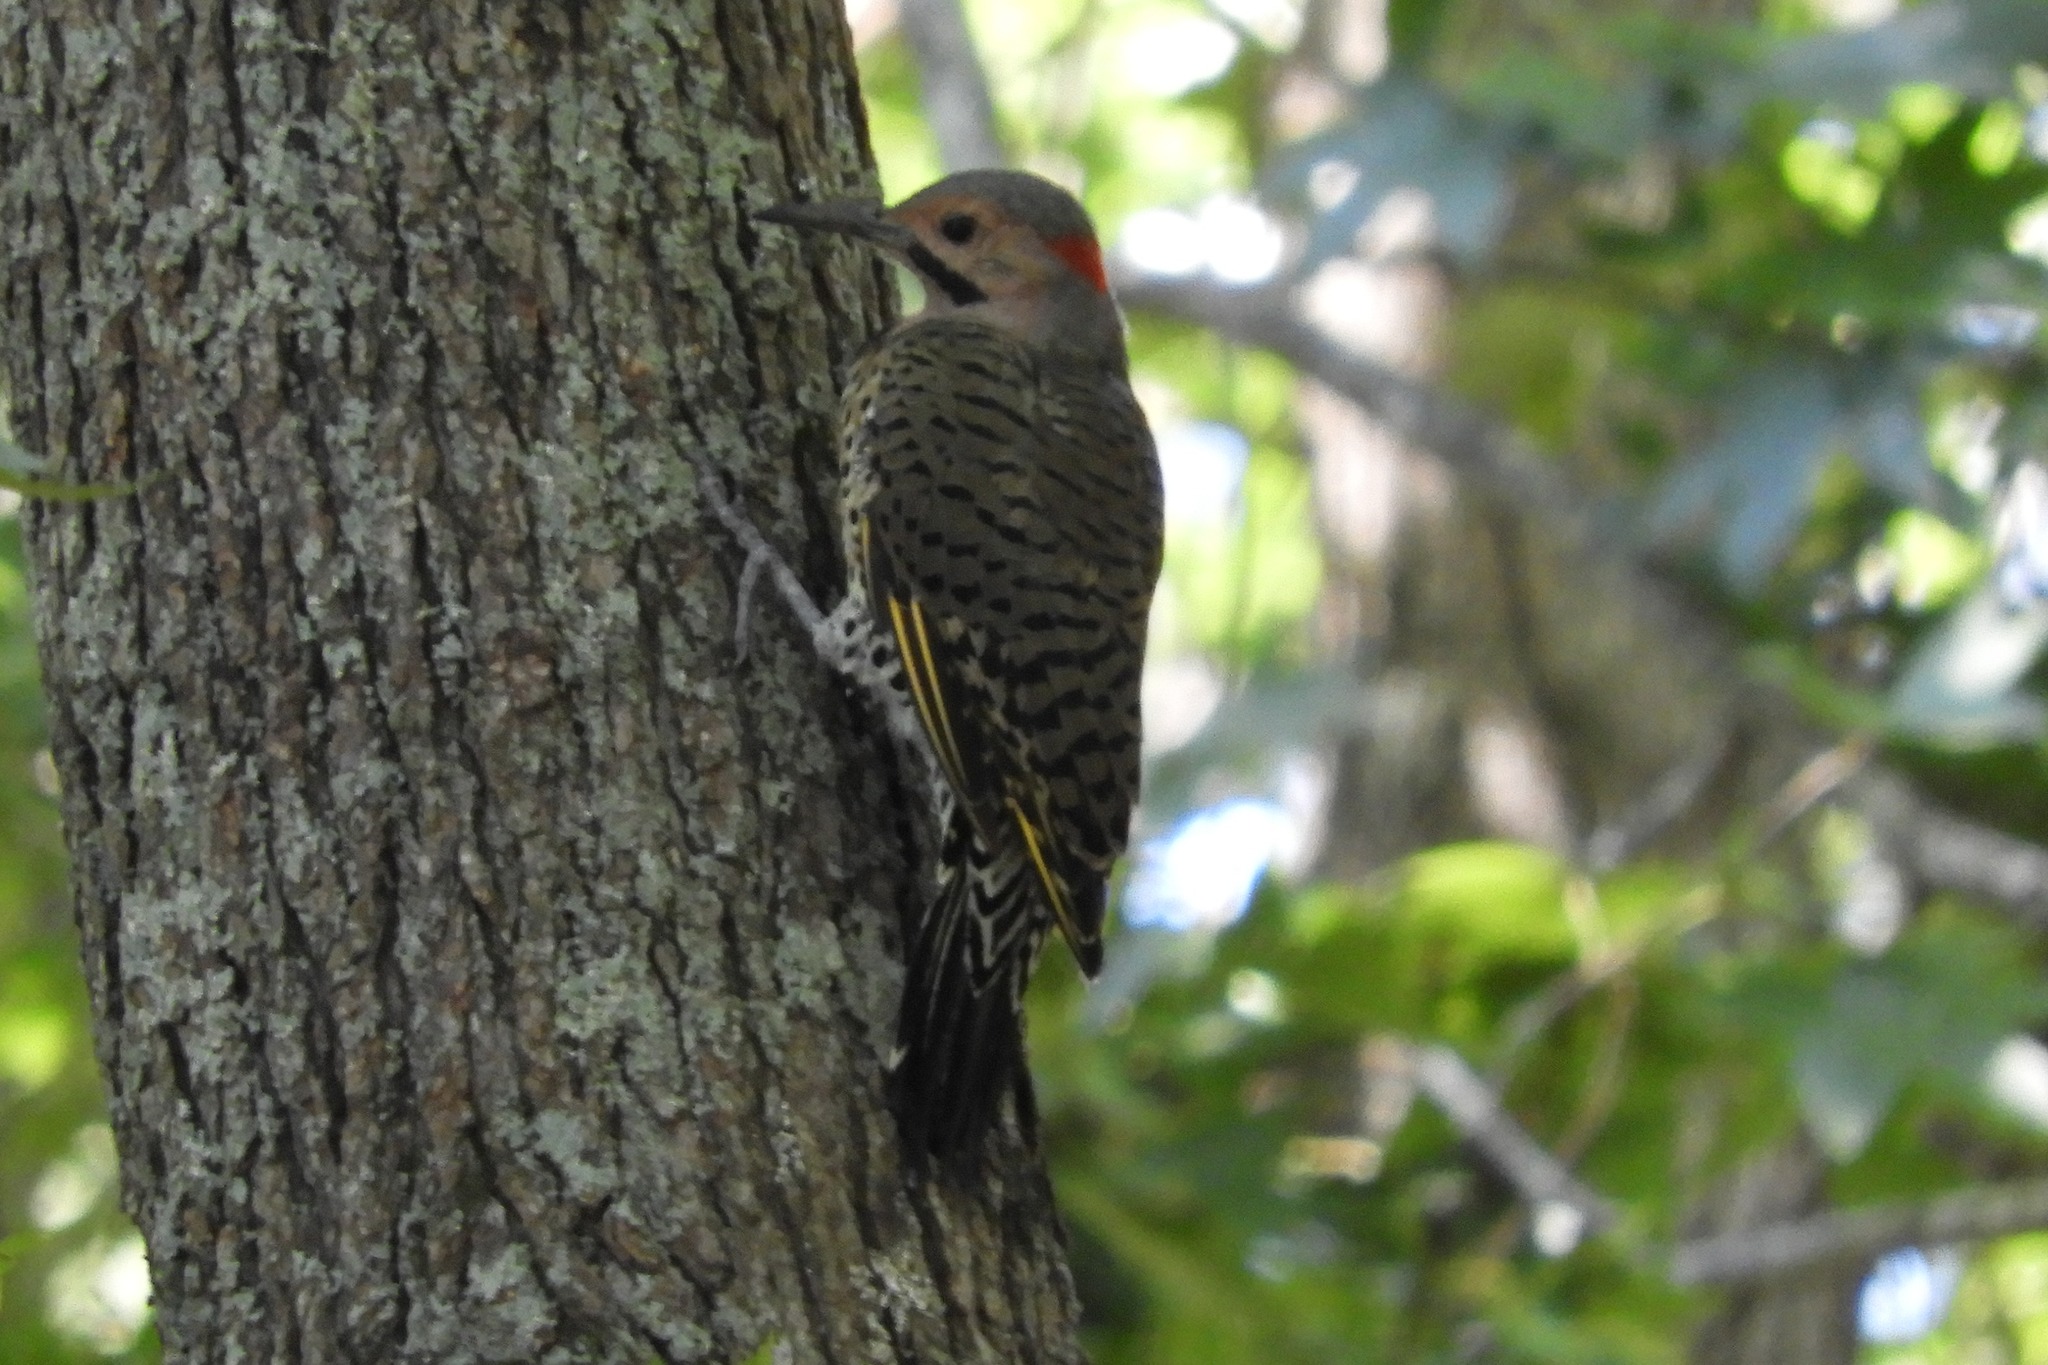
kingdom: Animalia
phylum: Chordata
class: Aves
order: Piciformes
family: Picidae
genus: Colaptes
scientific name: Colaptes auratus
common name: Northern flicker
